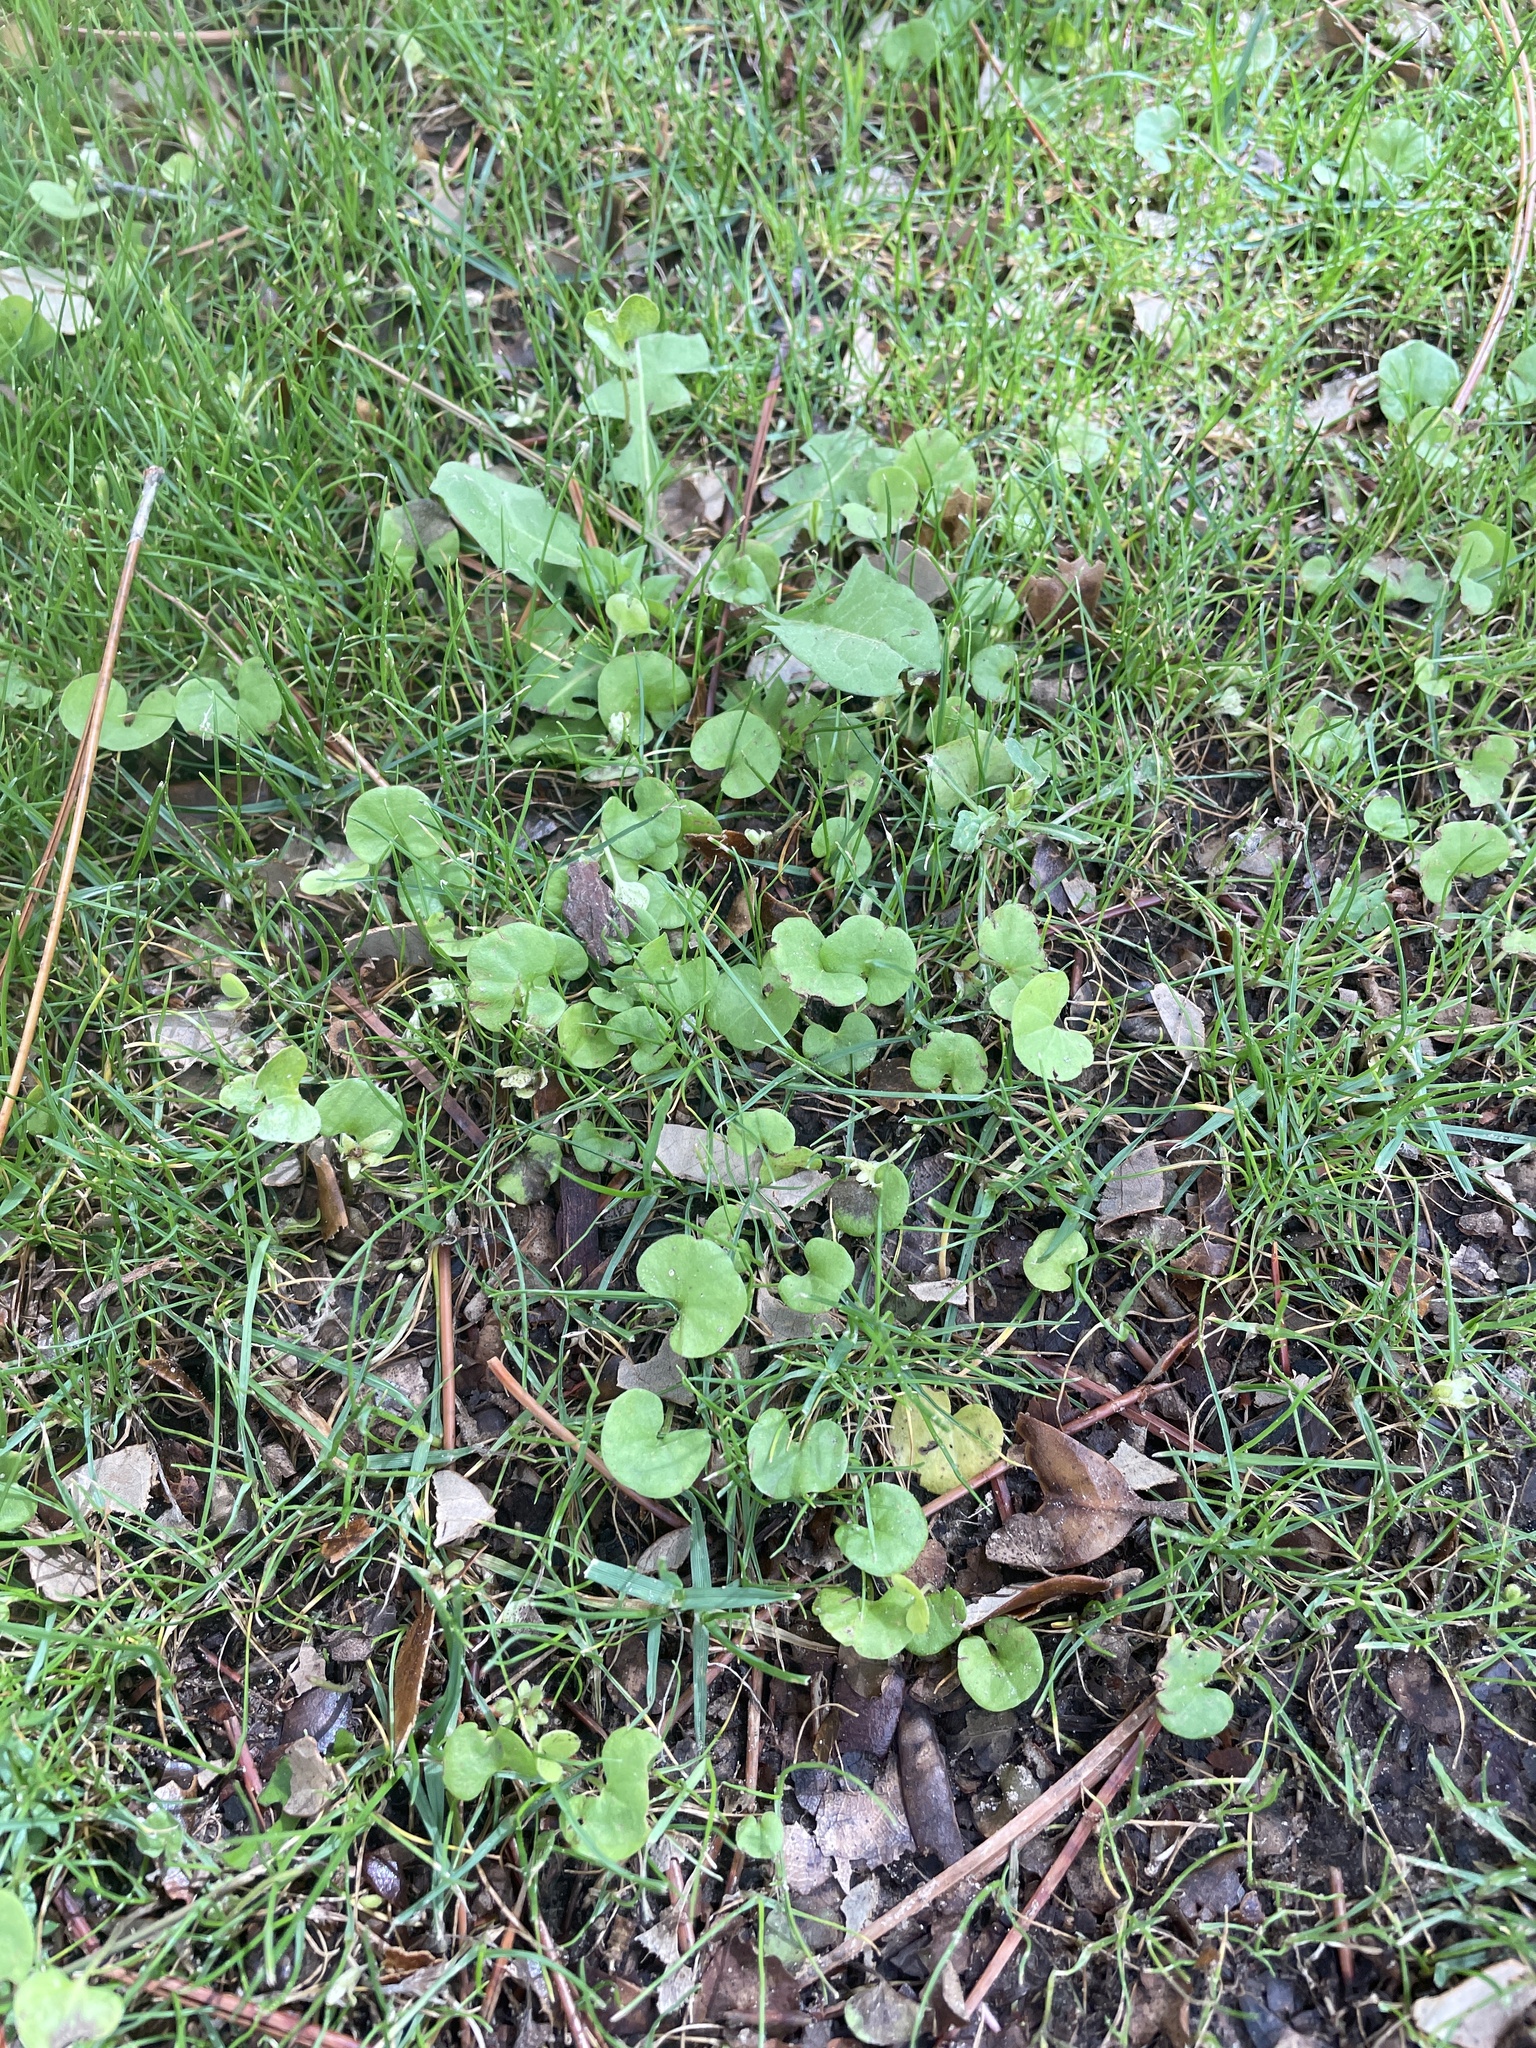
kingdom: Plantae
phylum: Tracheophyta
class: Magnoliopsida
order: Solanales
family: Convolvulaceae
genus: Dichondra
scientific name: Dichondra carolinensis
